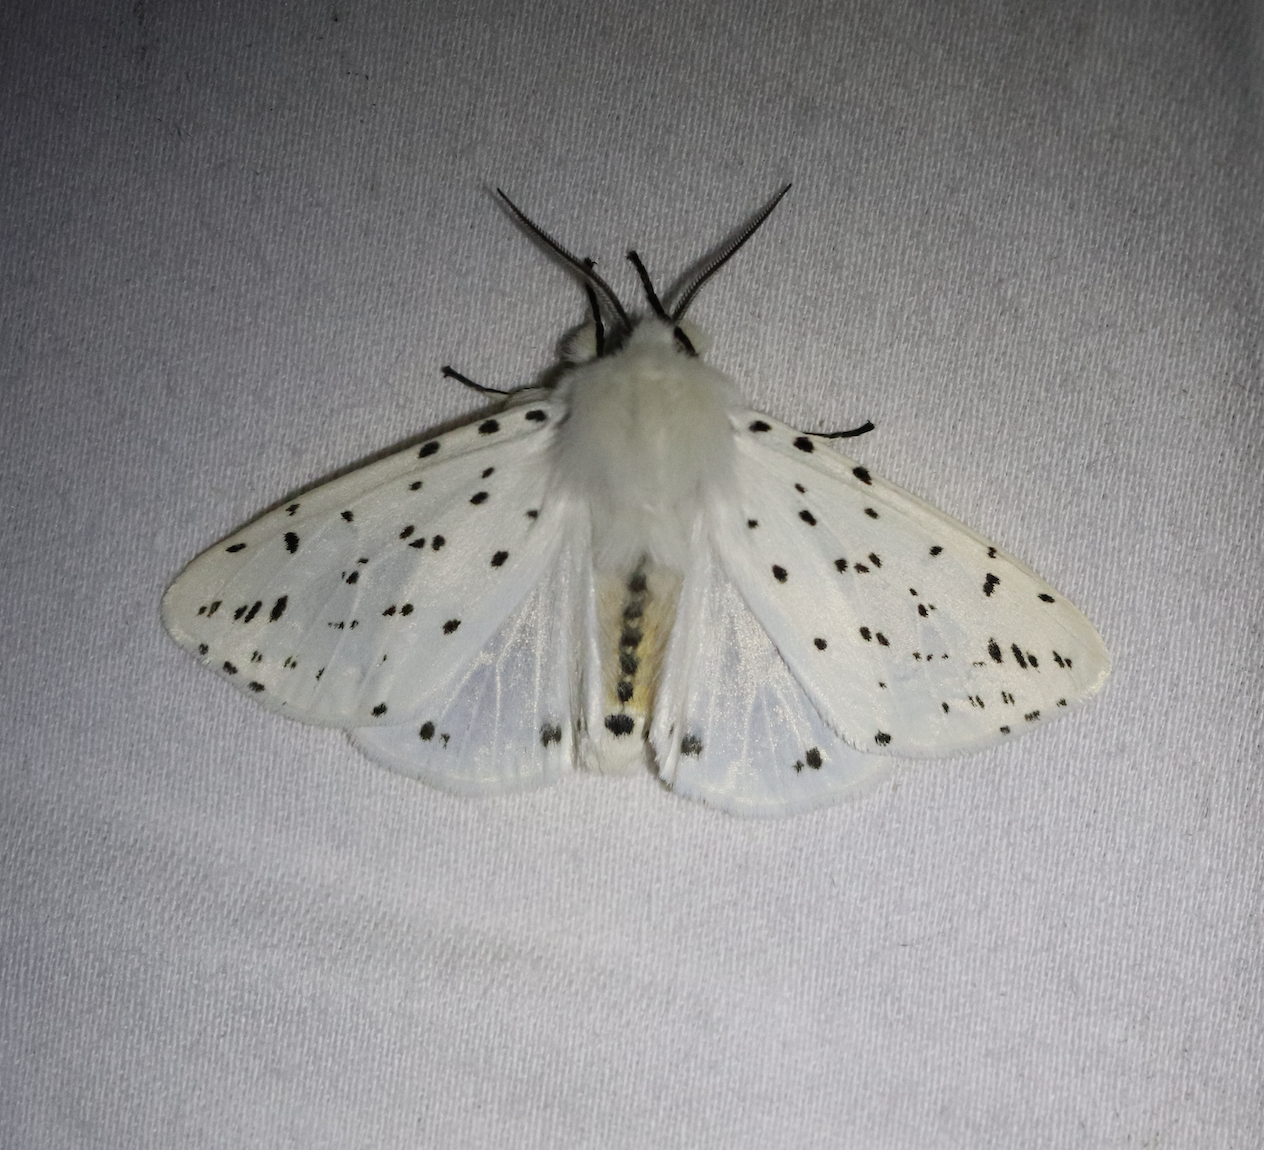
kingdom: Animalia
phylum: Arthropoda
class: Insecta
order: Lepidoptera
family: Erebidae
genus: Spilosoma
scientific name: Spilosoma lubricipeda
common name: White ermine
